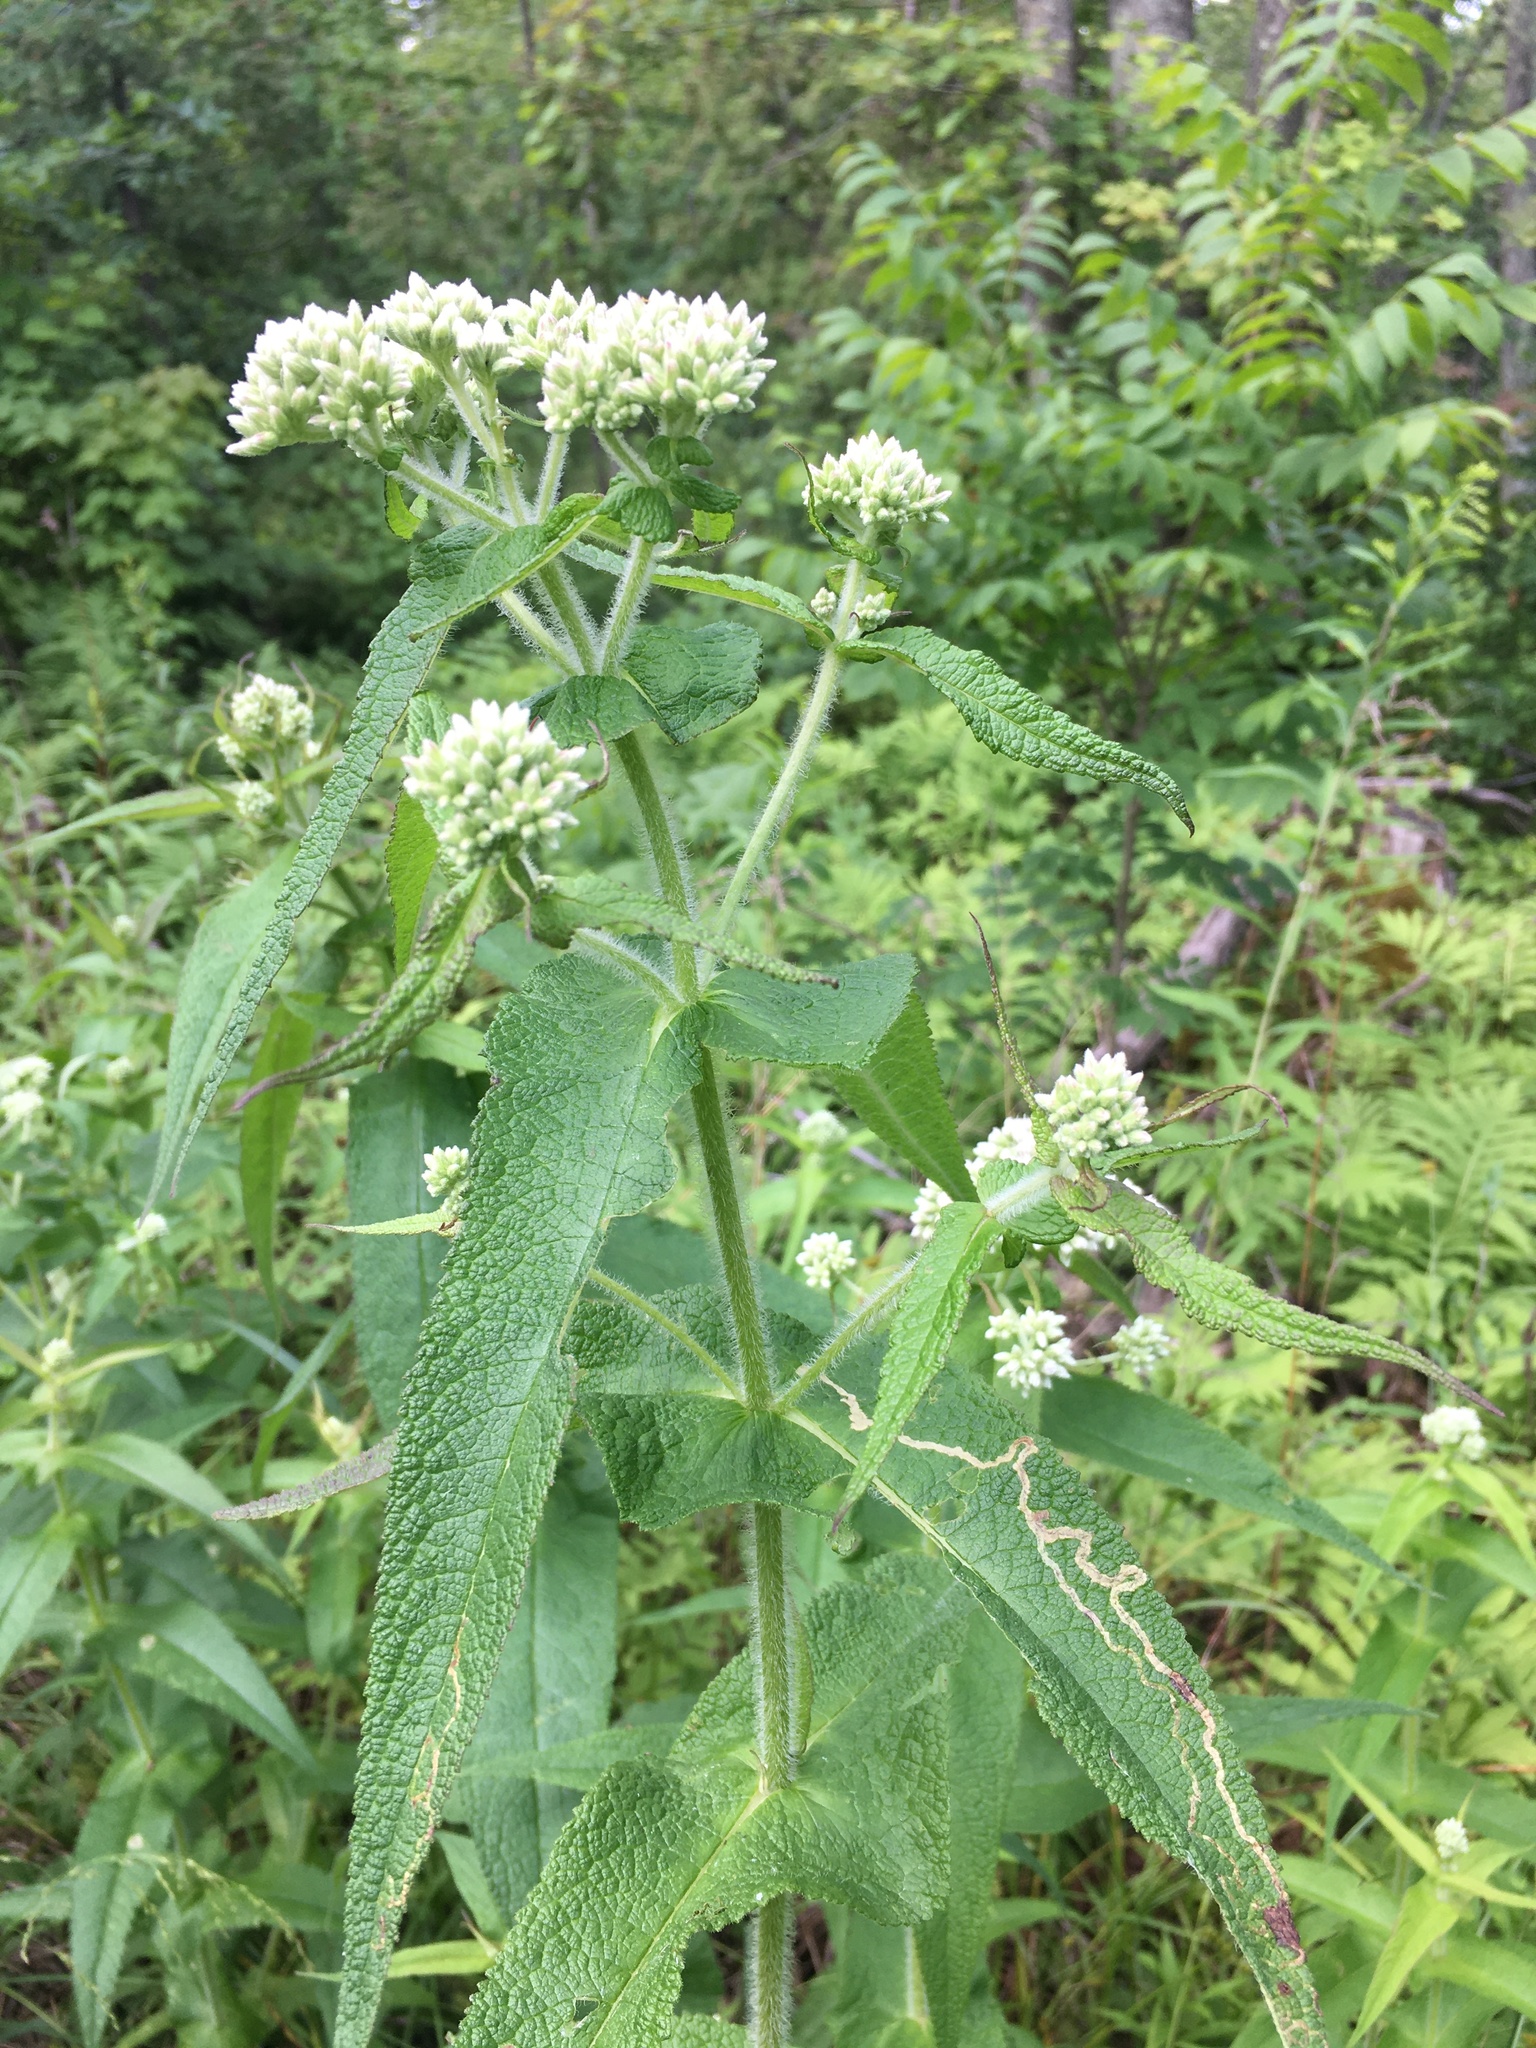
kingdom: Plantae
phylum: Tracheophyta
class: Magnoliopsida
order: Asterales
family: Asteraceae
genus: Eupatorium
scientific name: Eupatorium perfoliatum
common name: Boneset
